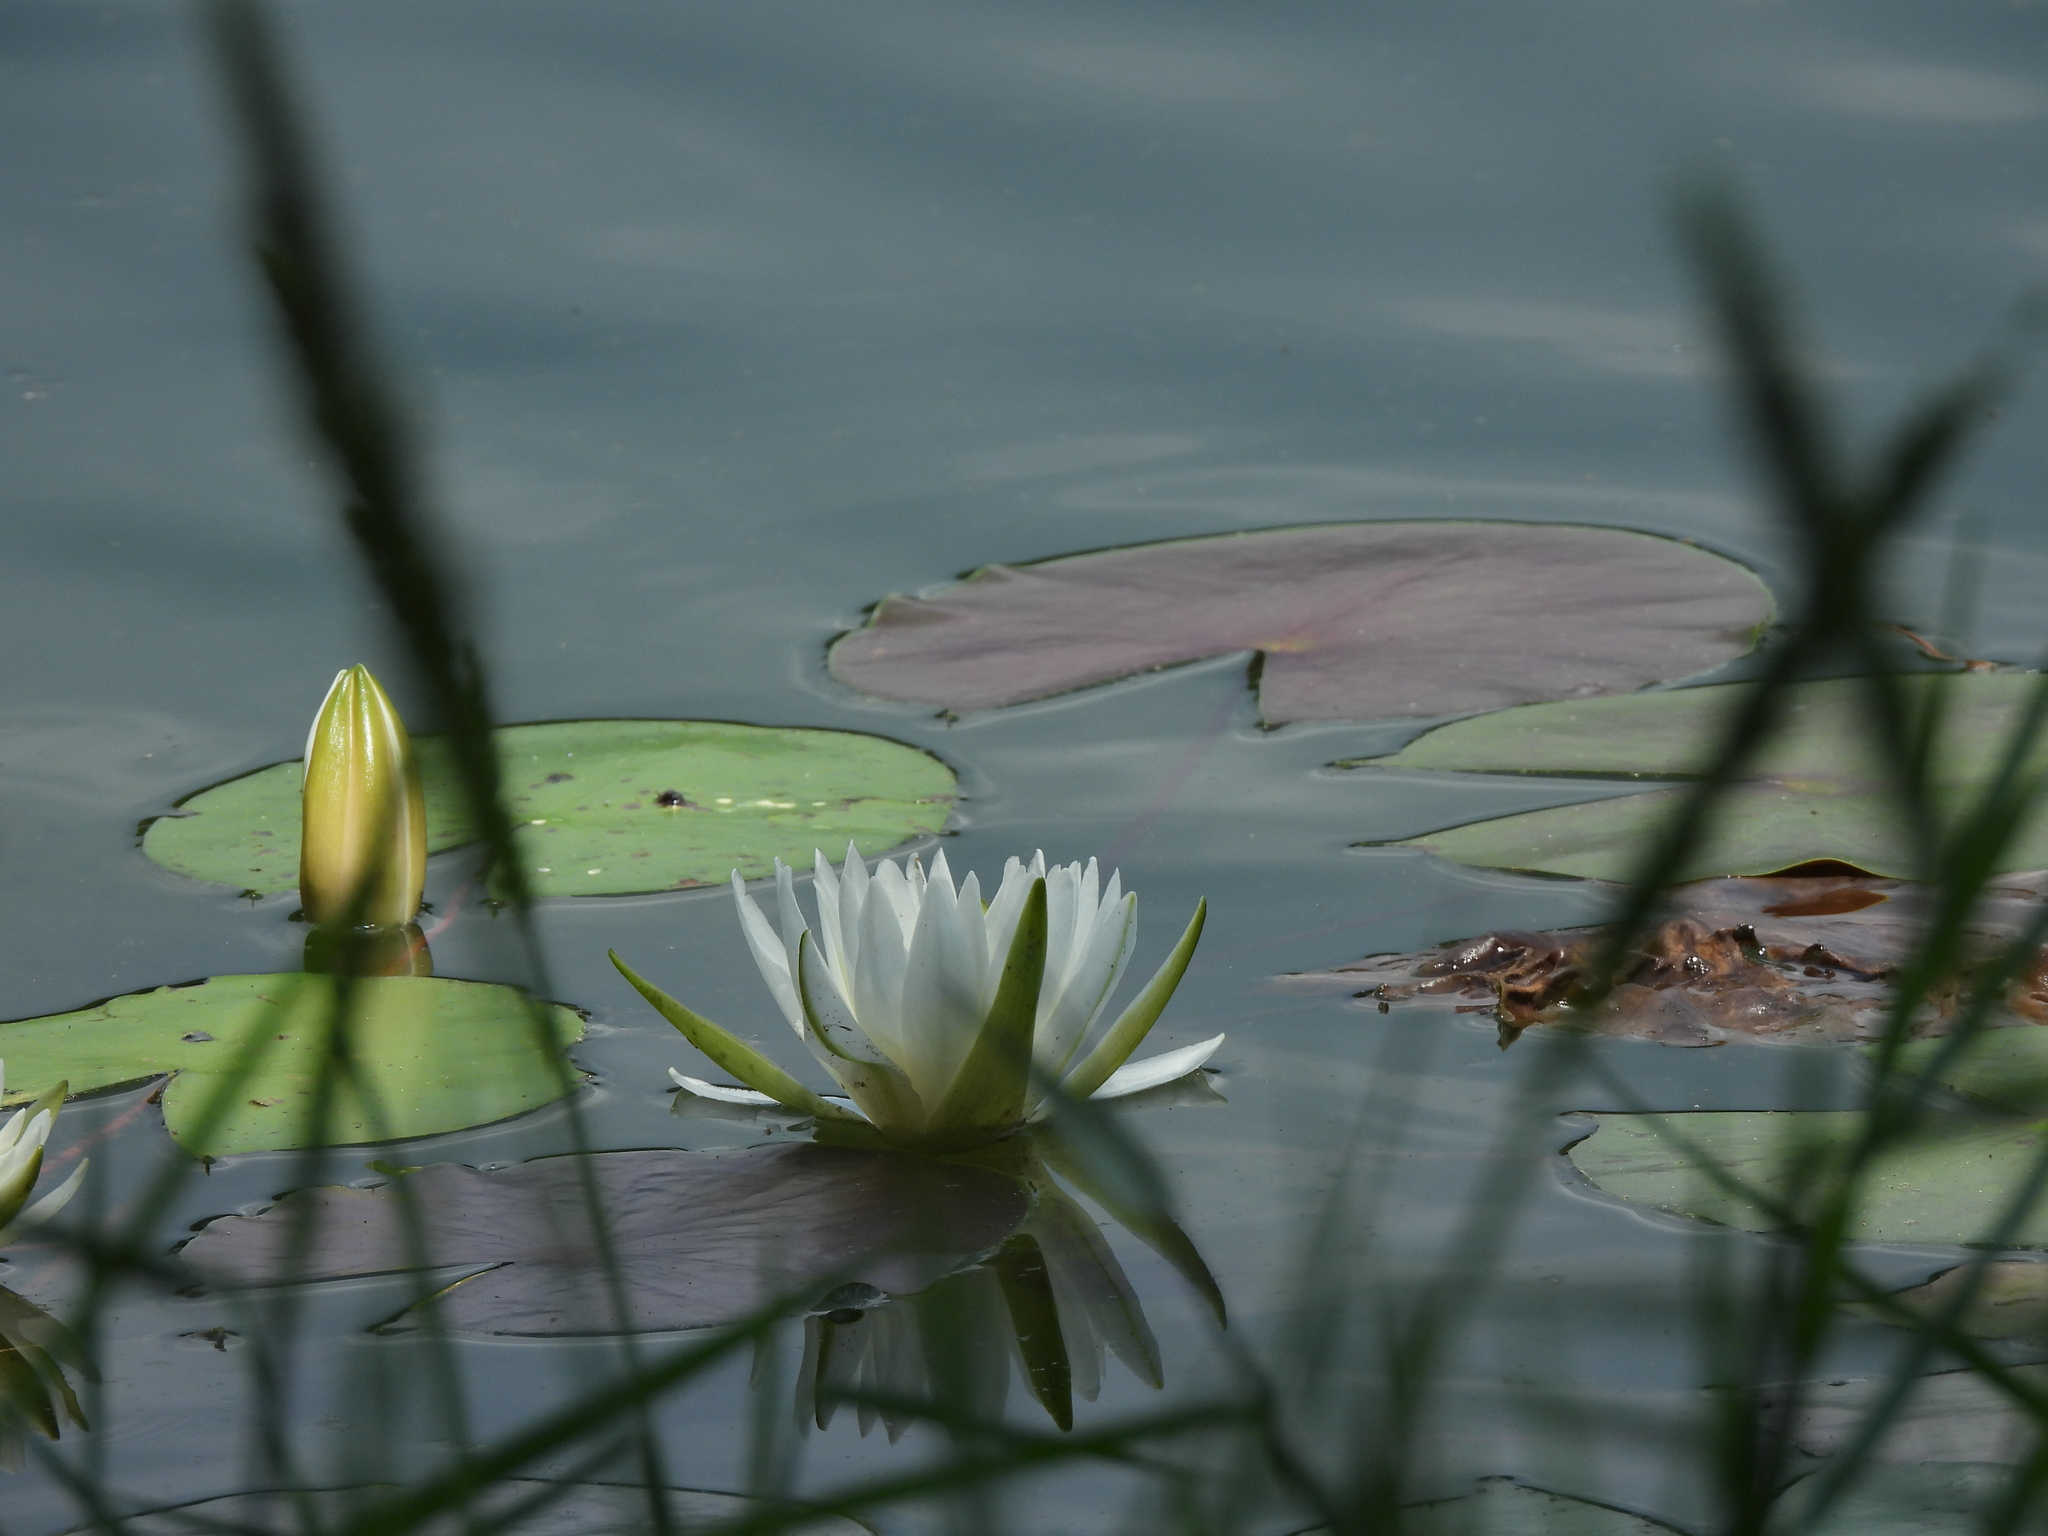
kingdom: Plantae
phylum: Tracheophyta
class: Magnoliopsida
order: Nymphaeales
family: Nymphaeaceae
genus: Nymphaea
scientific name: Nymphaea odorata
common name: Fragrant water-lily
